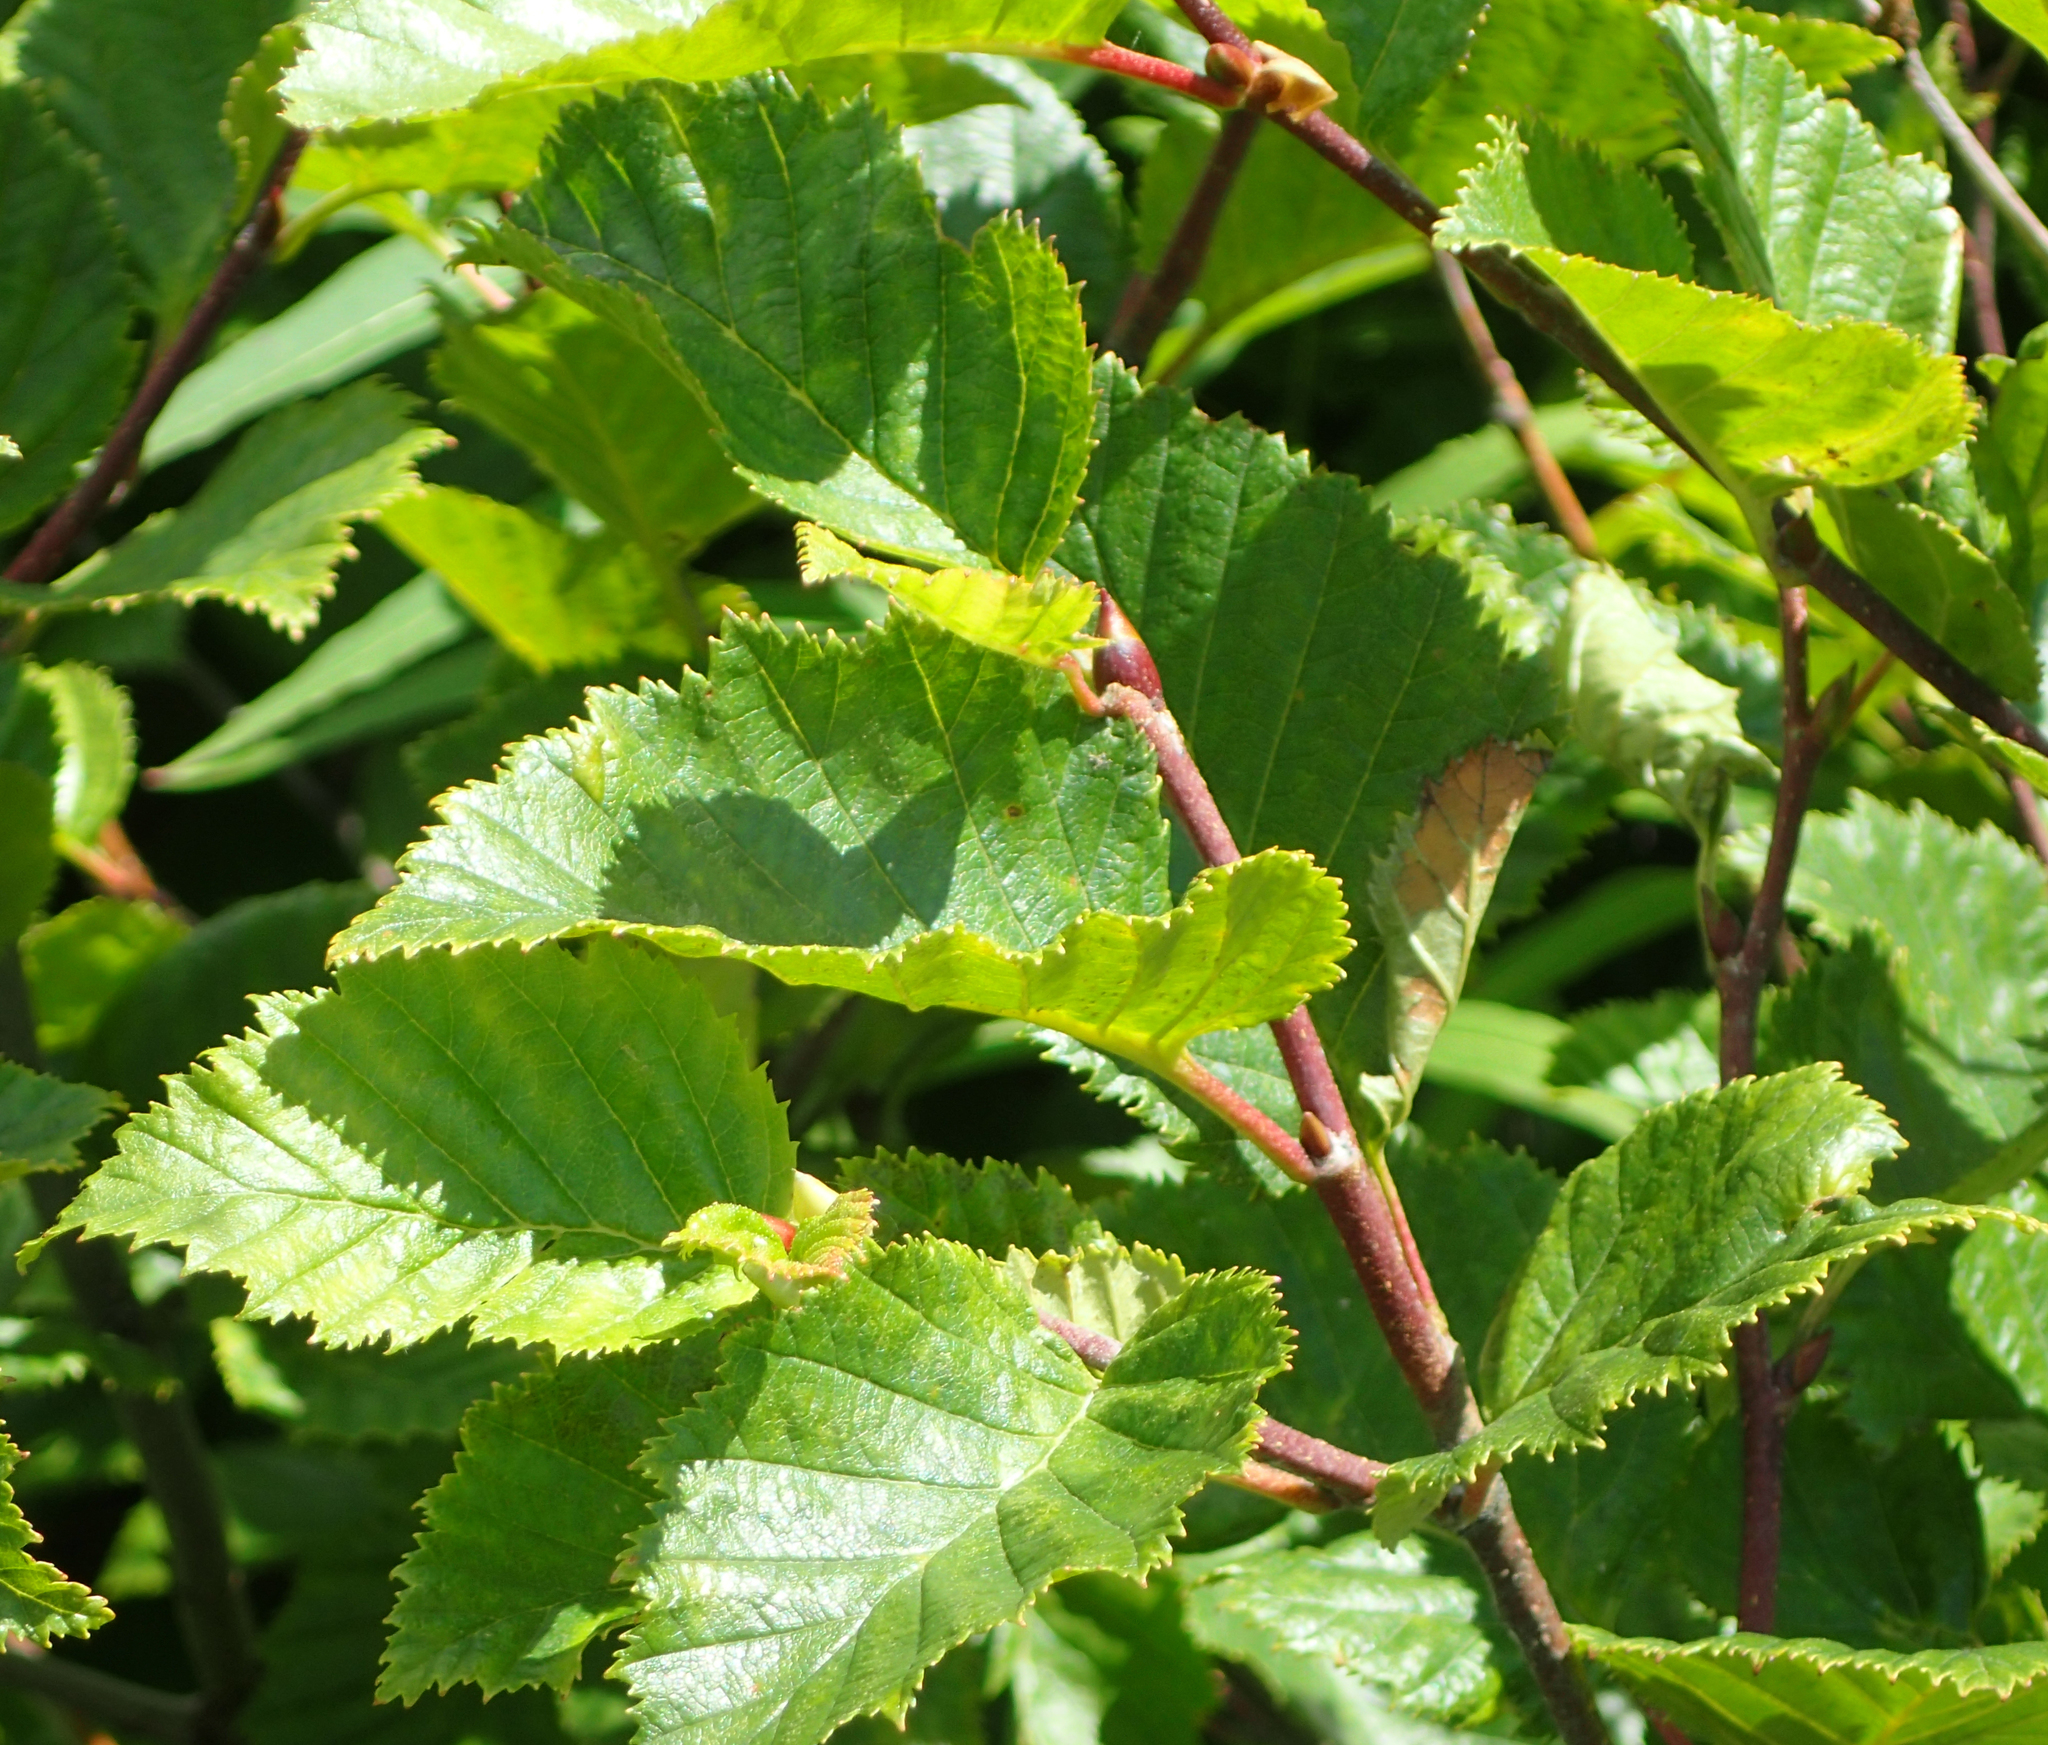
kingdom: Plantae
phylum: Tracheophyta
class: Magnoliopsida
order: Fagales
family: Betulaceae
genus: Alnus
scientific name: Alnus alnobetula
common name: Green alder
